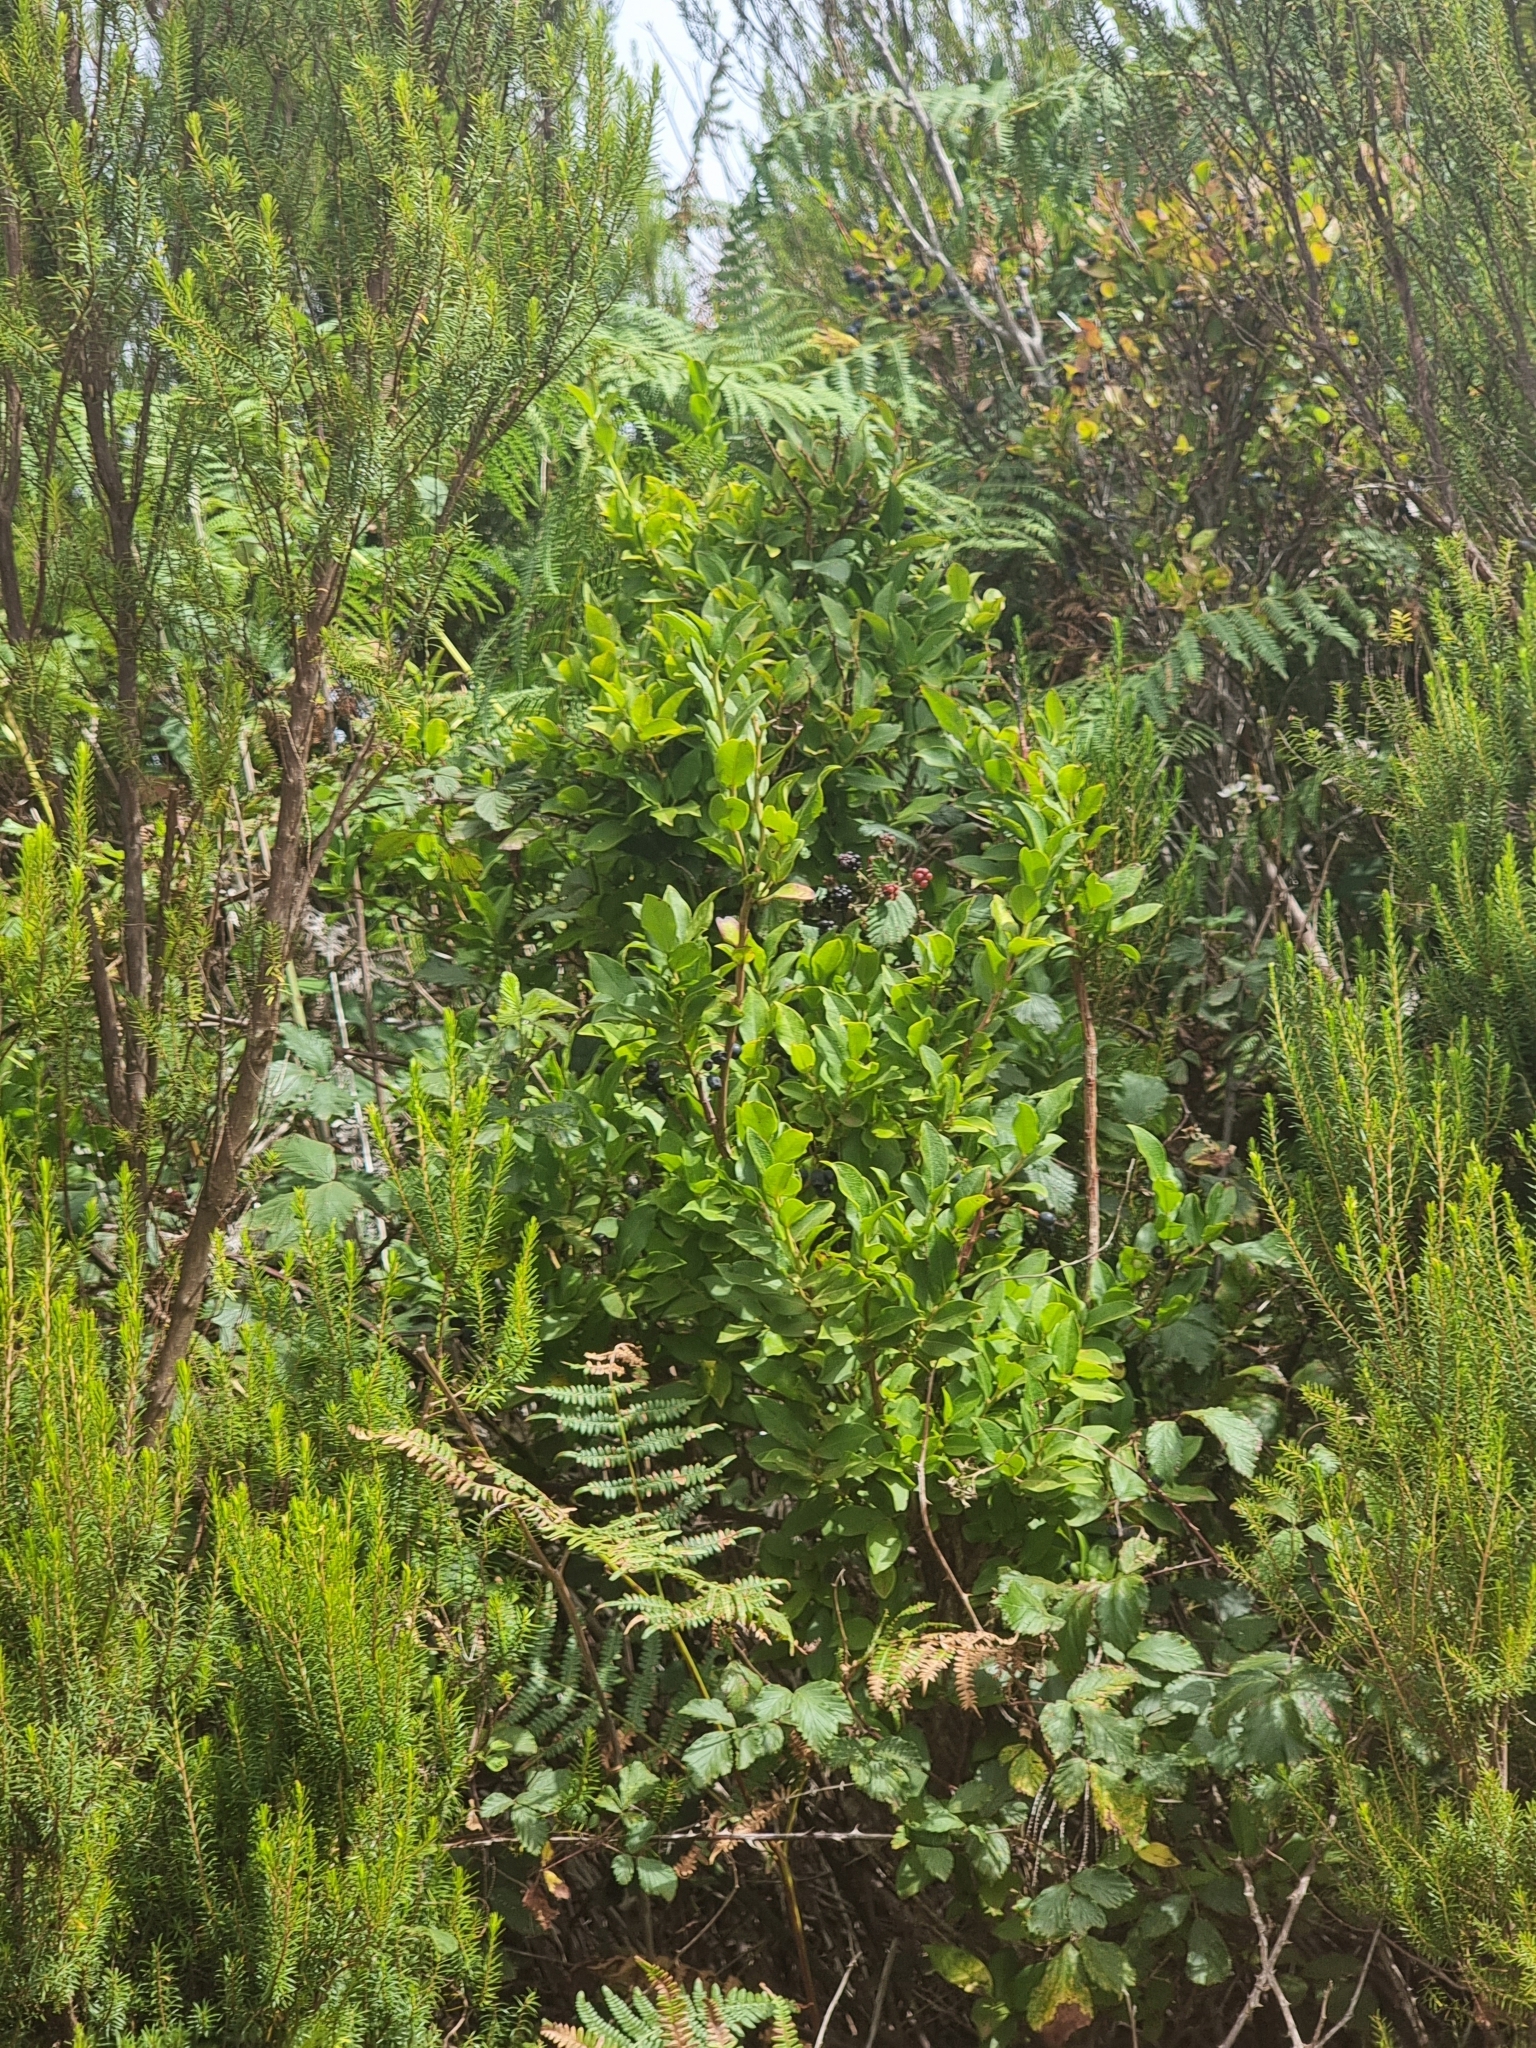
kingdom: Plantae
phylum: Tracheophyta
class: Magnoliopsida
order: Ericales
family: Ericaceae
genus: Vaccinium
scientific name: Vaccinium padifolium
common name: Madeiran blueberry
